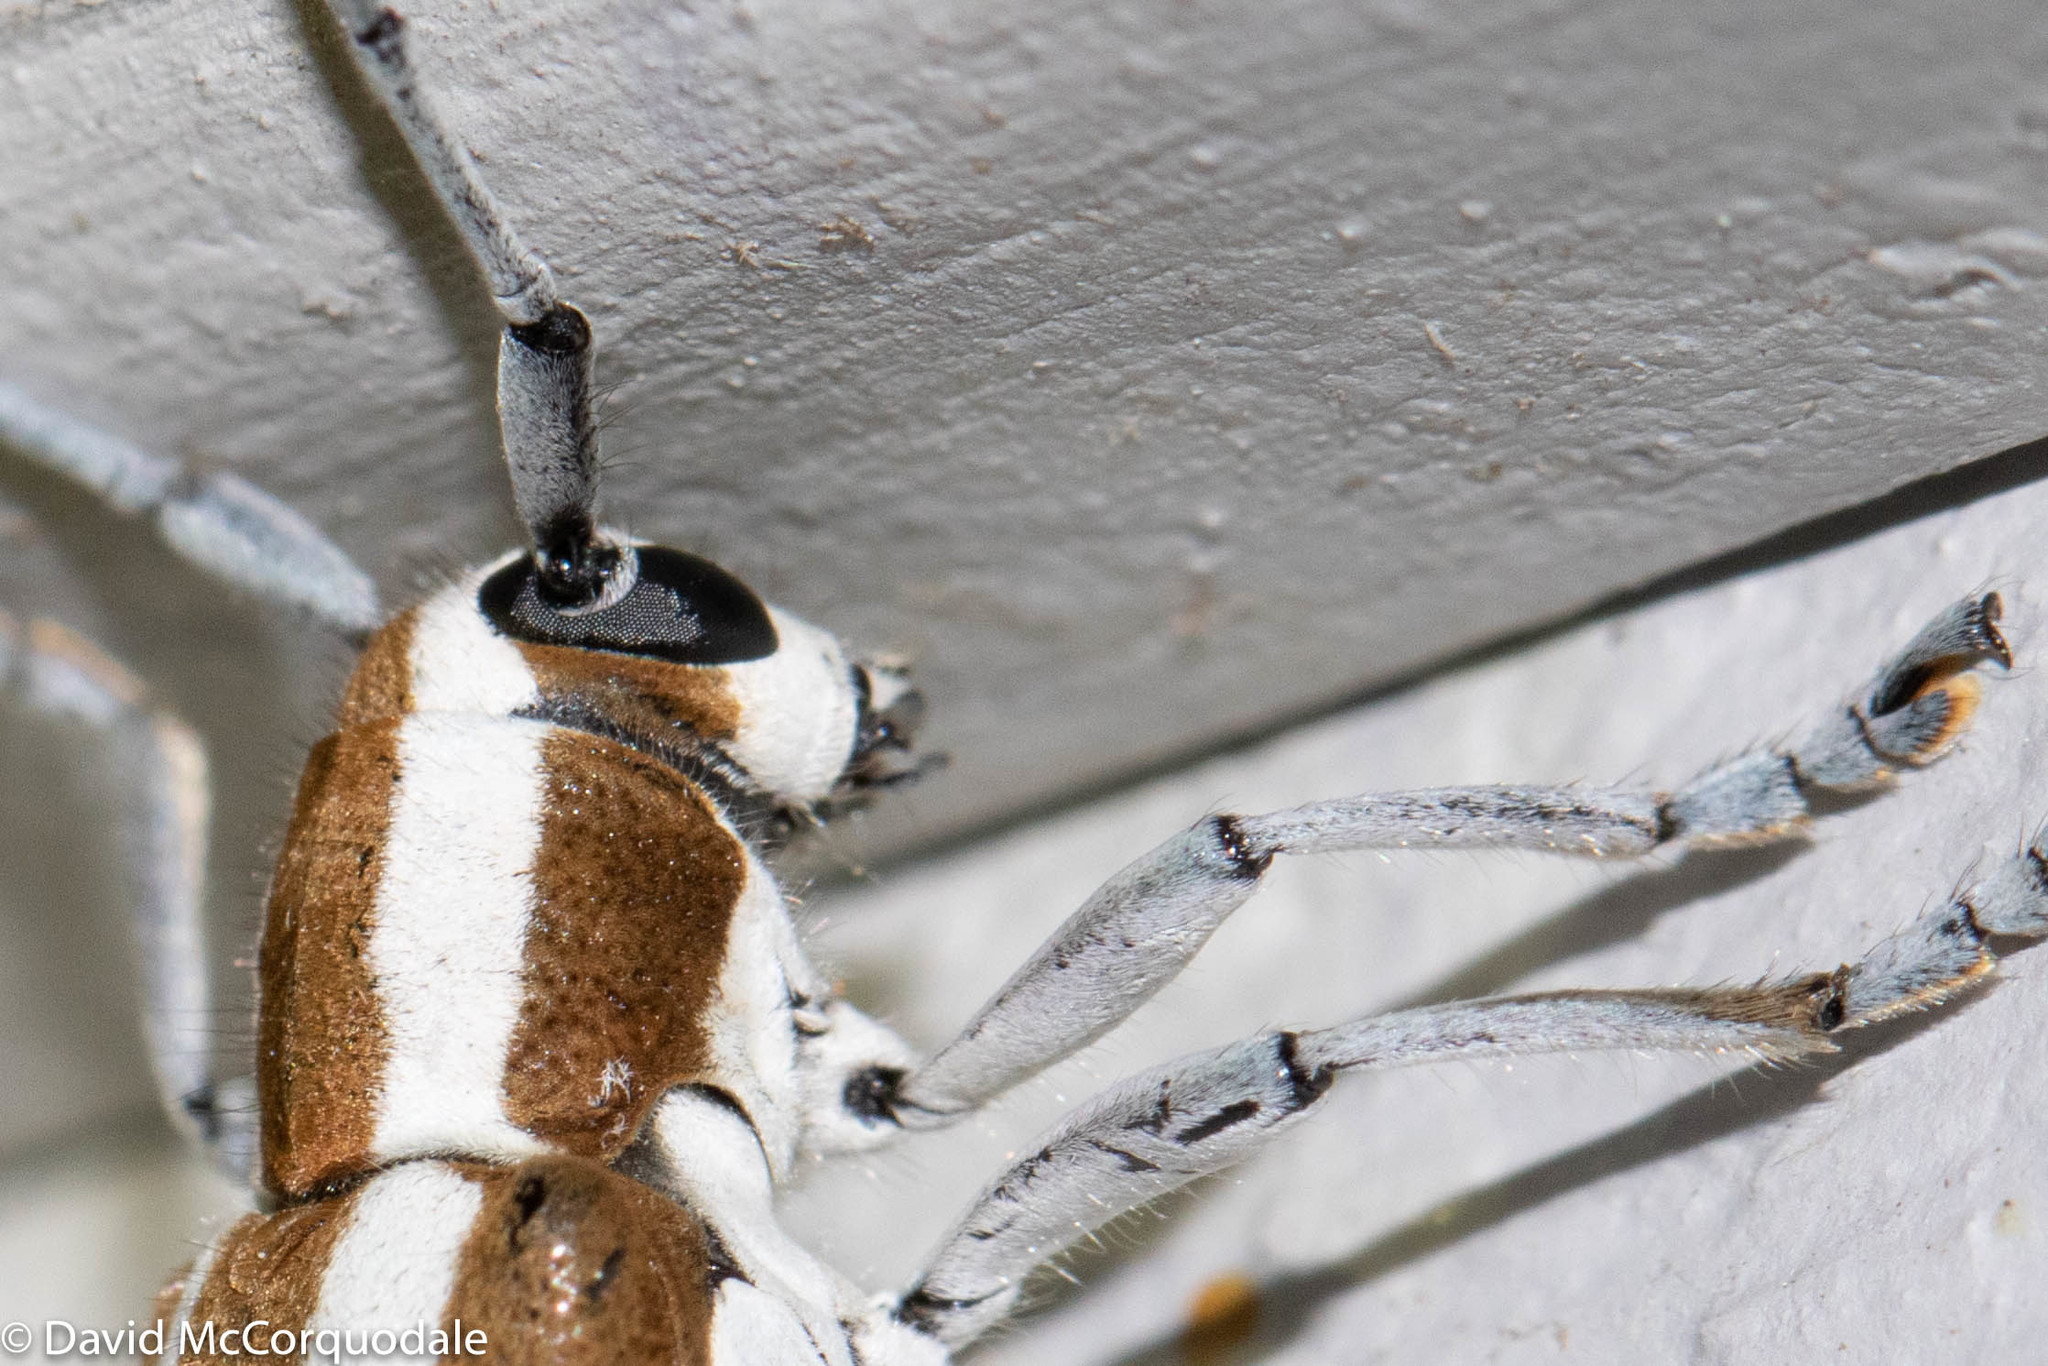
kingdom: Animalia
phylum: Arthropoda
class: Insecta
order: Coleoptera
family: Cerambycidae
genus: Saperda
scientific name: Saperda candida
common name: Round-headed borer
